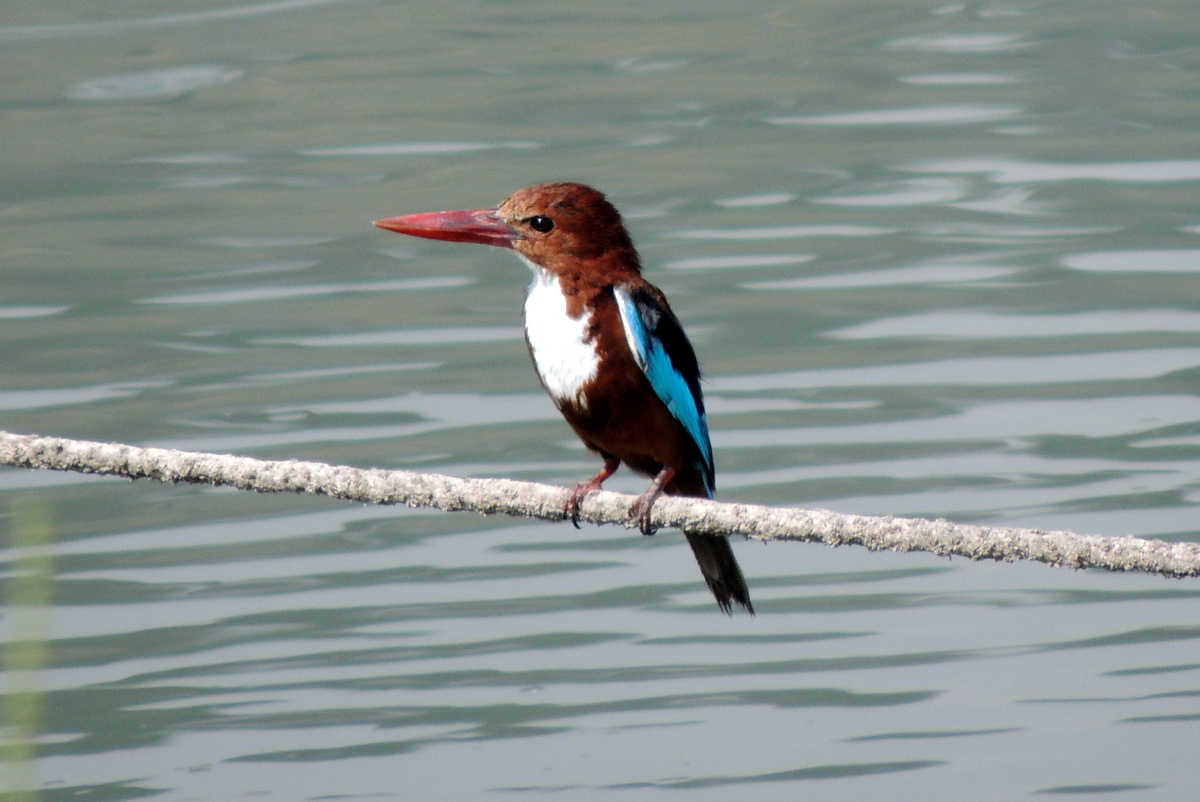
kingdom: Animalia
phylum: Chordata
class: Aves
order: Coraciiformes
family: Alcedinidae
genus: Halcyon
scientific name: Halcyon smyrnensis
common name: White-throated kingfisher
